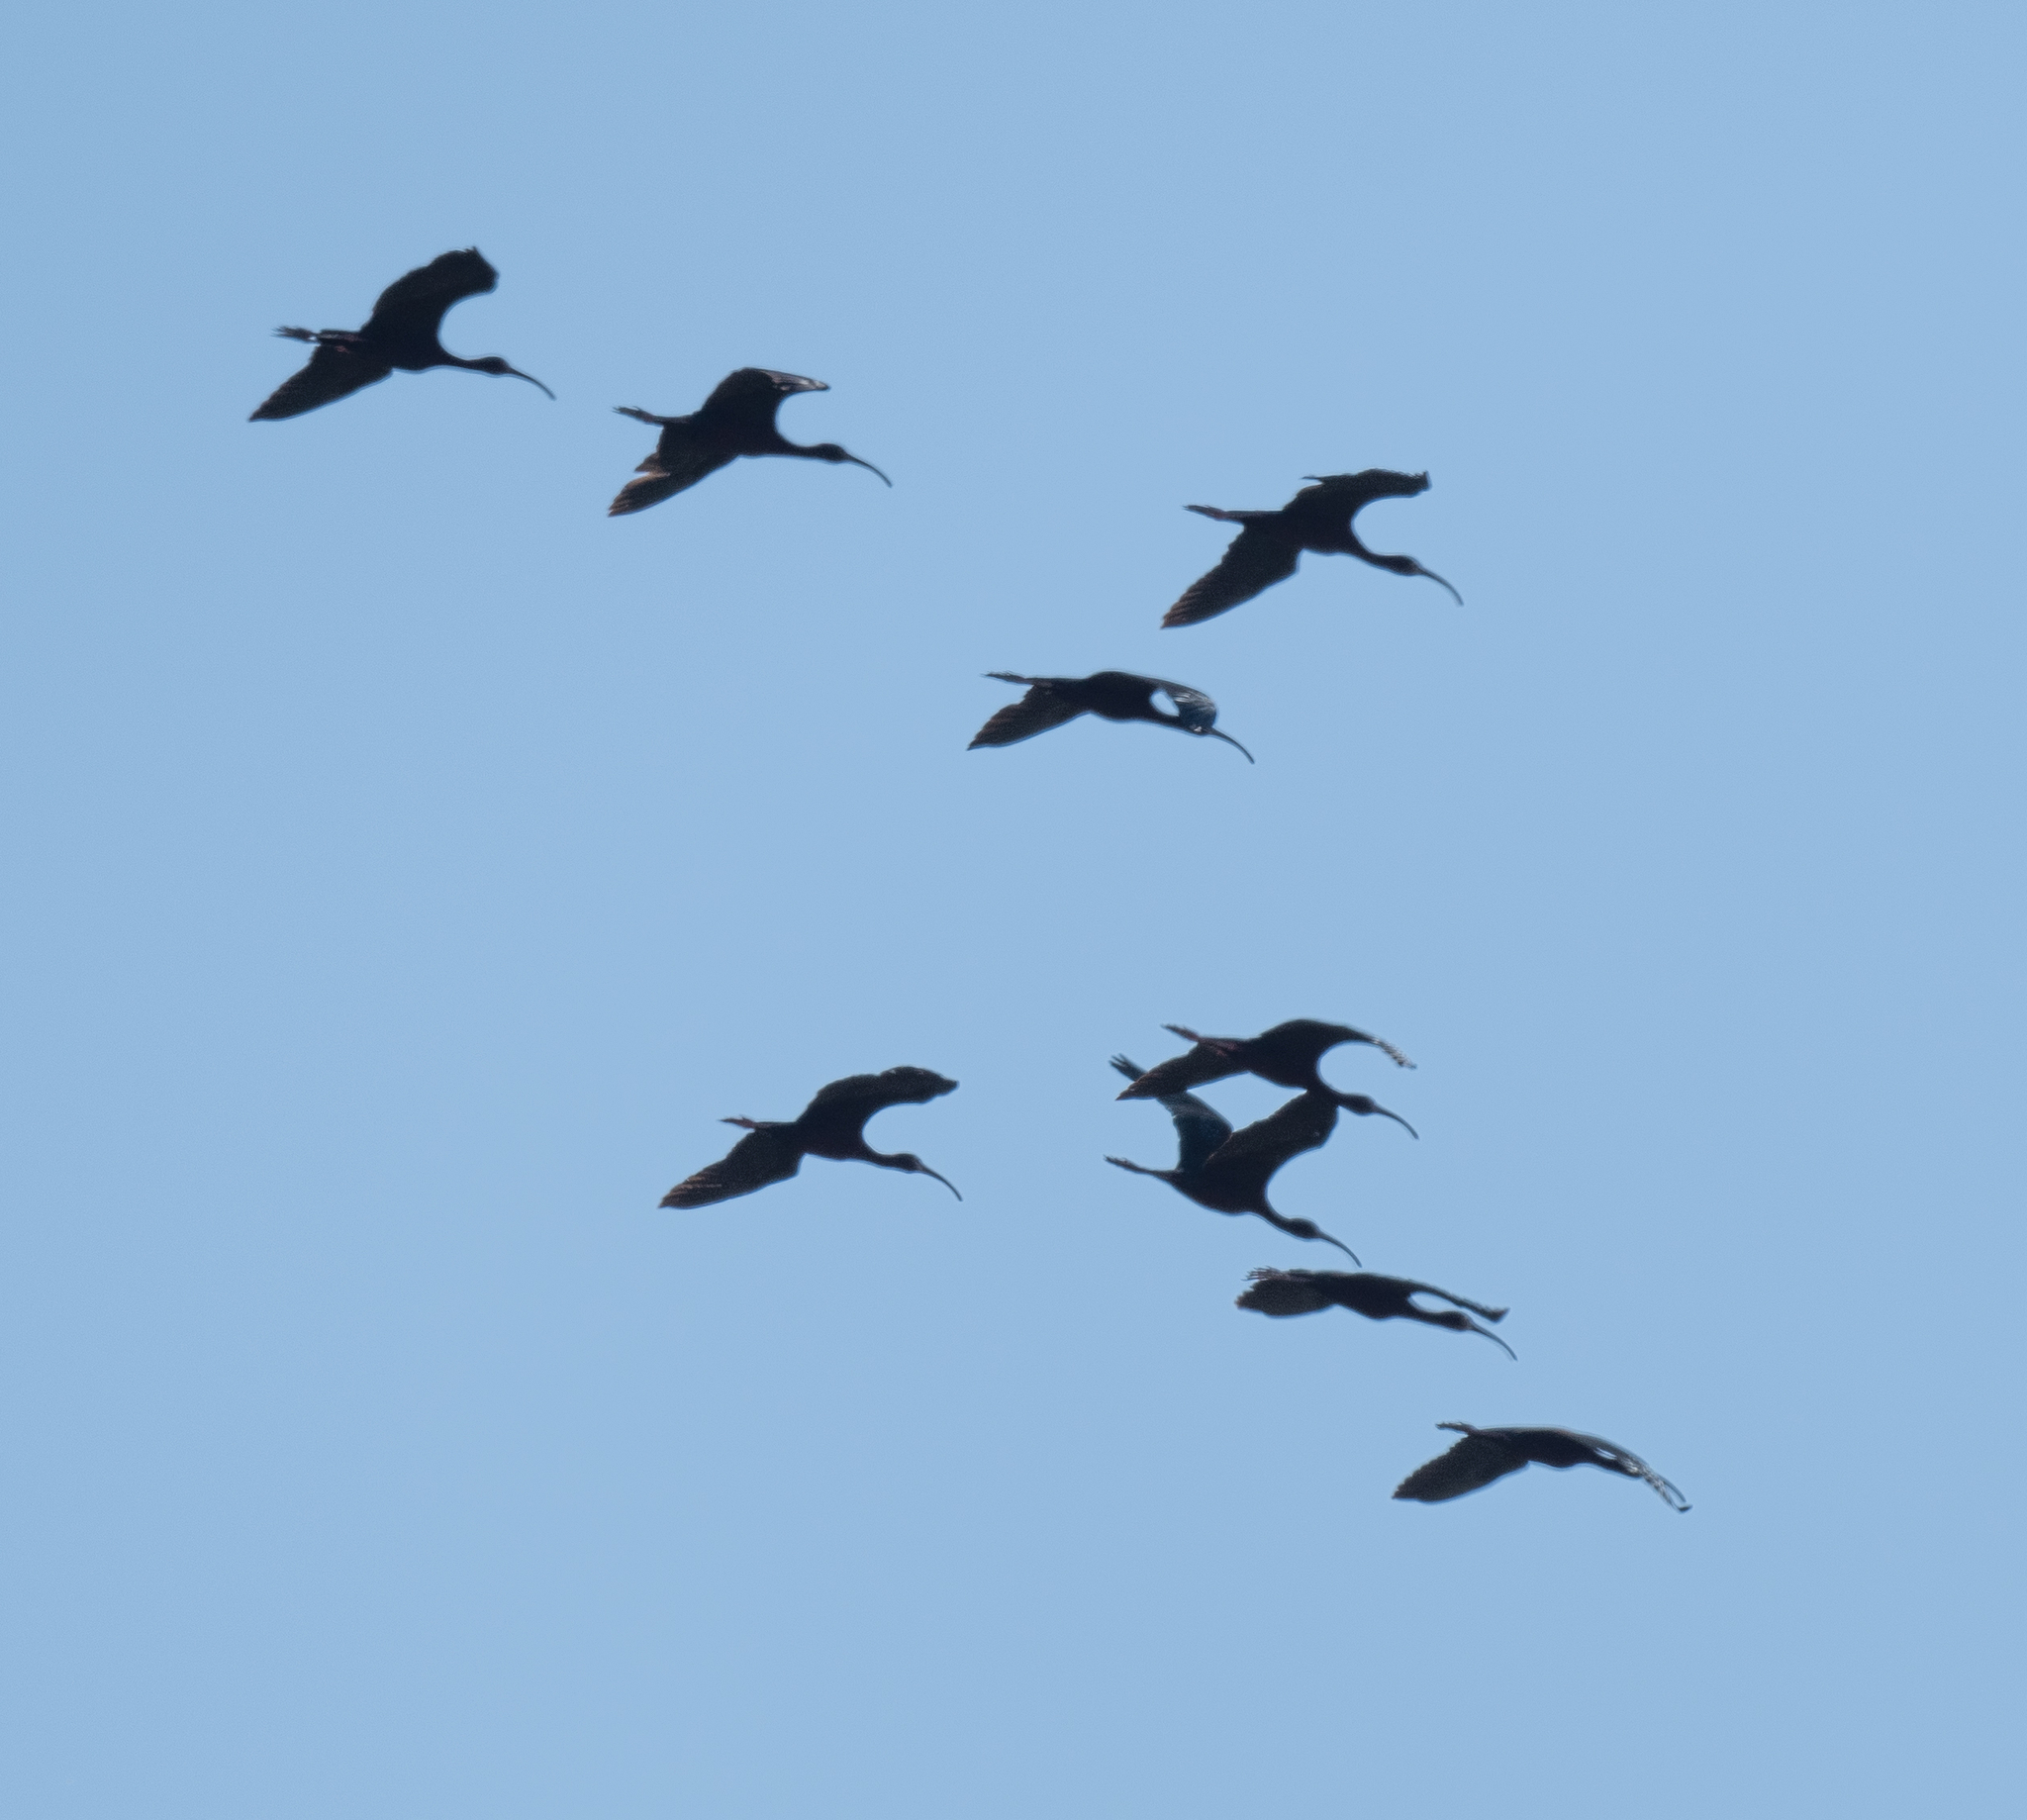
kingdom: Animalia
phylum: Chordata
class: Aves
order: Pelecaniformes
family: Threskiornithidae
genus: Plegadis
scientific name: Plegadis chihi
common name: White-faced ibis
